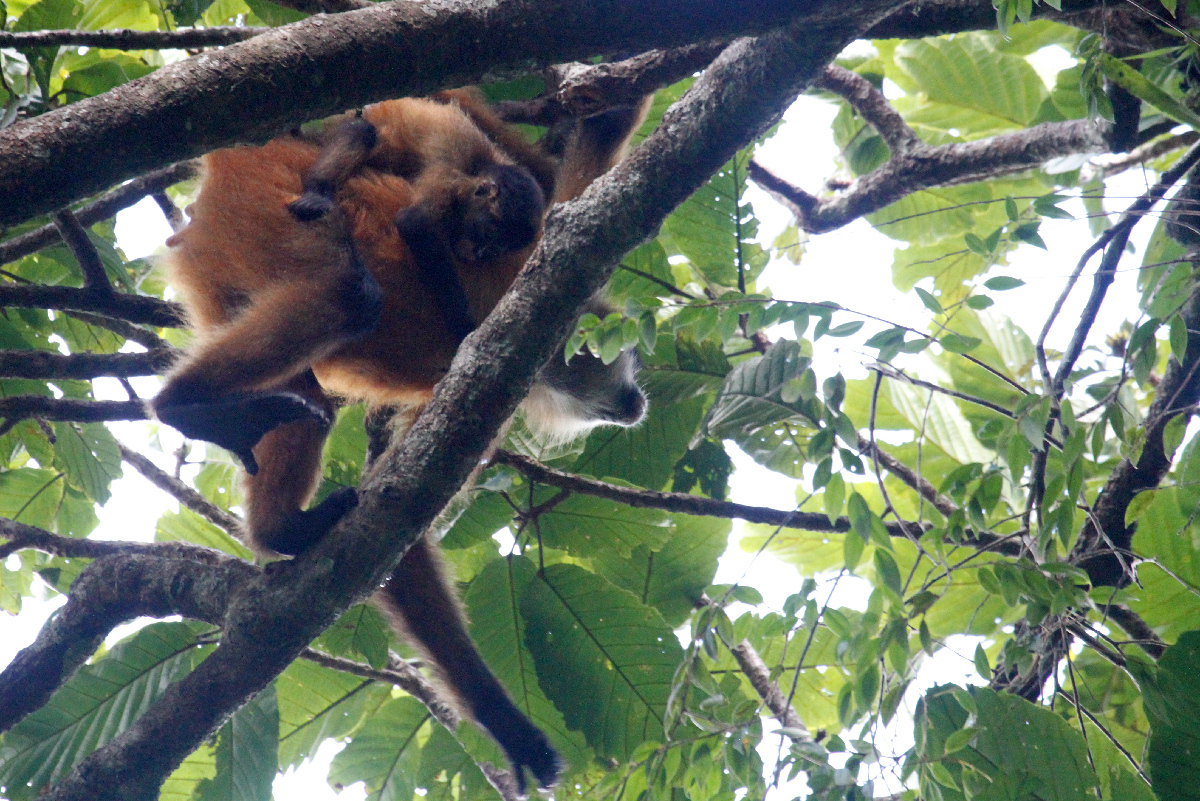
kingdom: Animalia
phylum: Chordata
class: Mammalia
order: Primates
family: Atelidae
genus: Ateles
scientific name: Ateles geoffroyi
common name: Black-handed spider monkey
